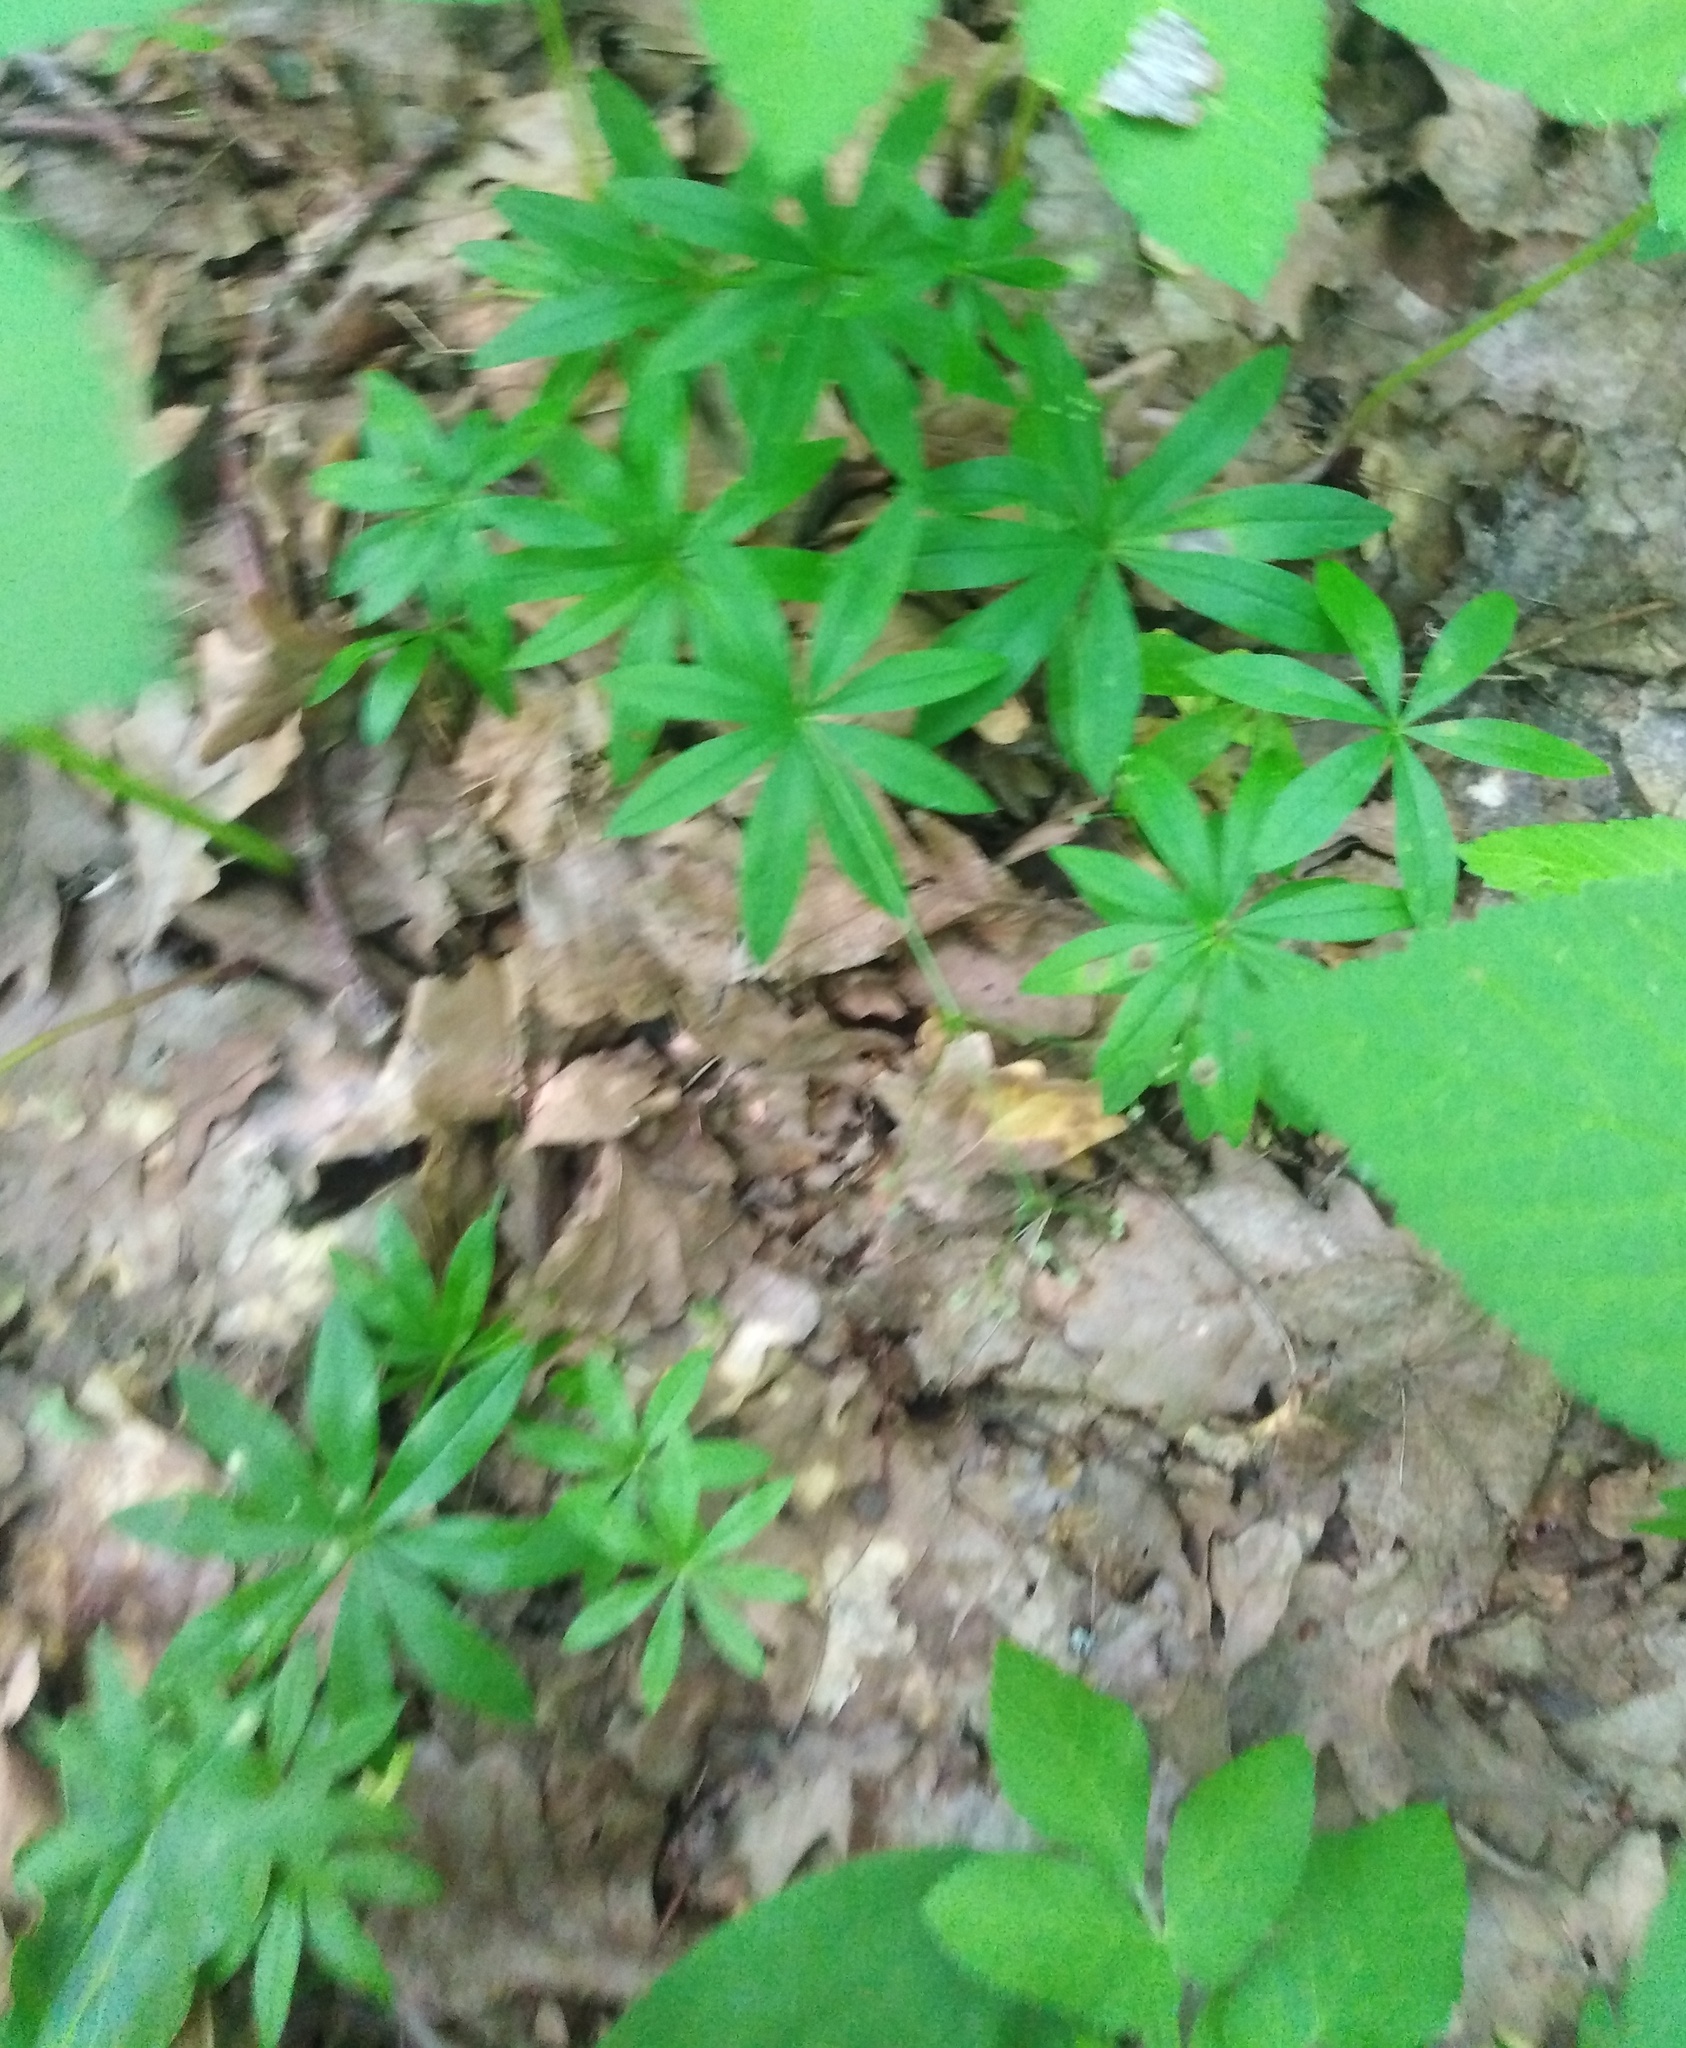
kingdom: Plantae
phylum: Tracheophyta
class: Magnoliopsida
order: Gentianales
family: Rubiaceae
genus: Galium
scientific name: Galium odoratum
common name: Sweet woodruff
